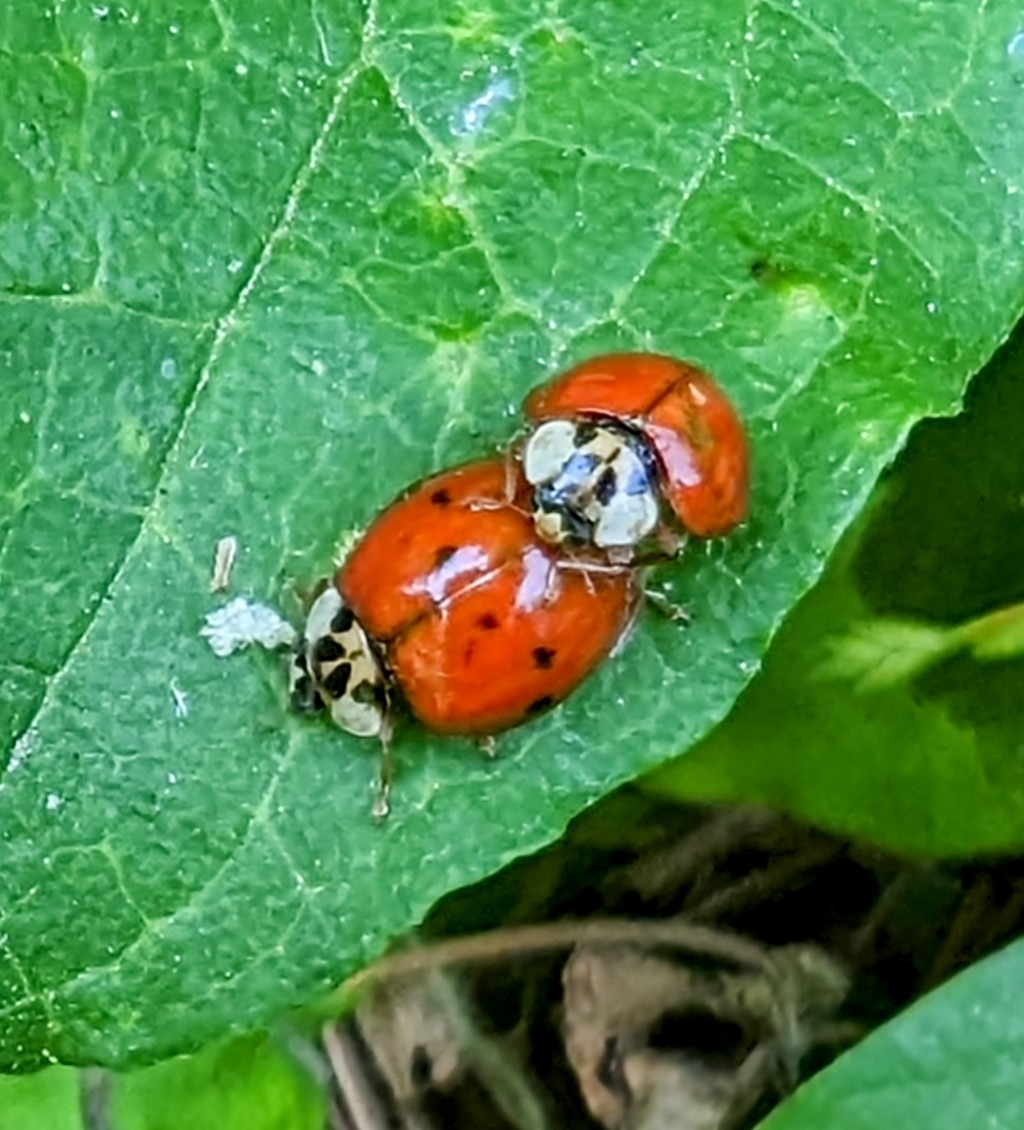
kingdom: Animalia
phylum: Arthropoda
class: Insecta
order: Coleoptera
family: Coccinellidae
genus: Harmonia
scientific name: Harmonia axyridis
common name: Harlequin ladybird
